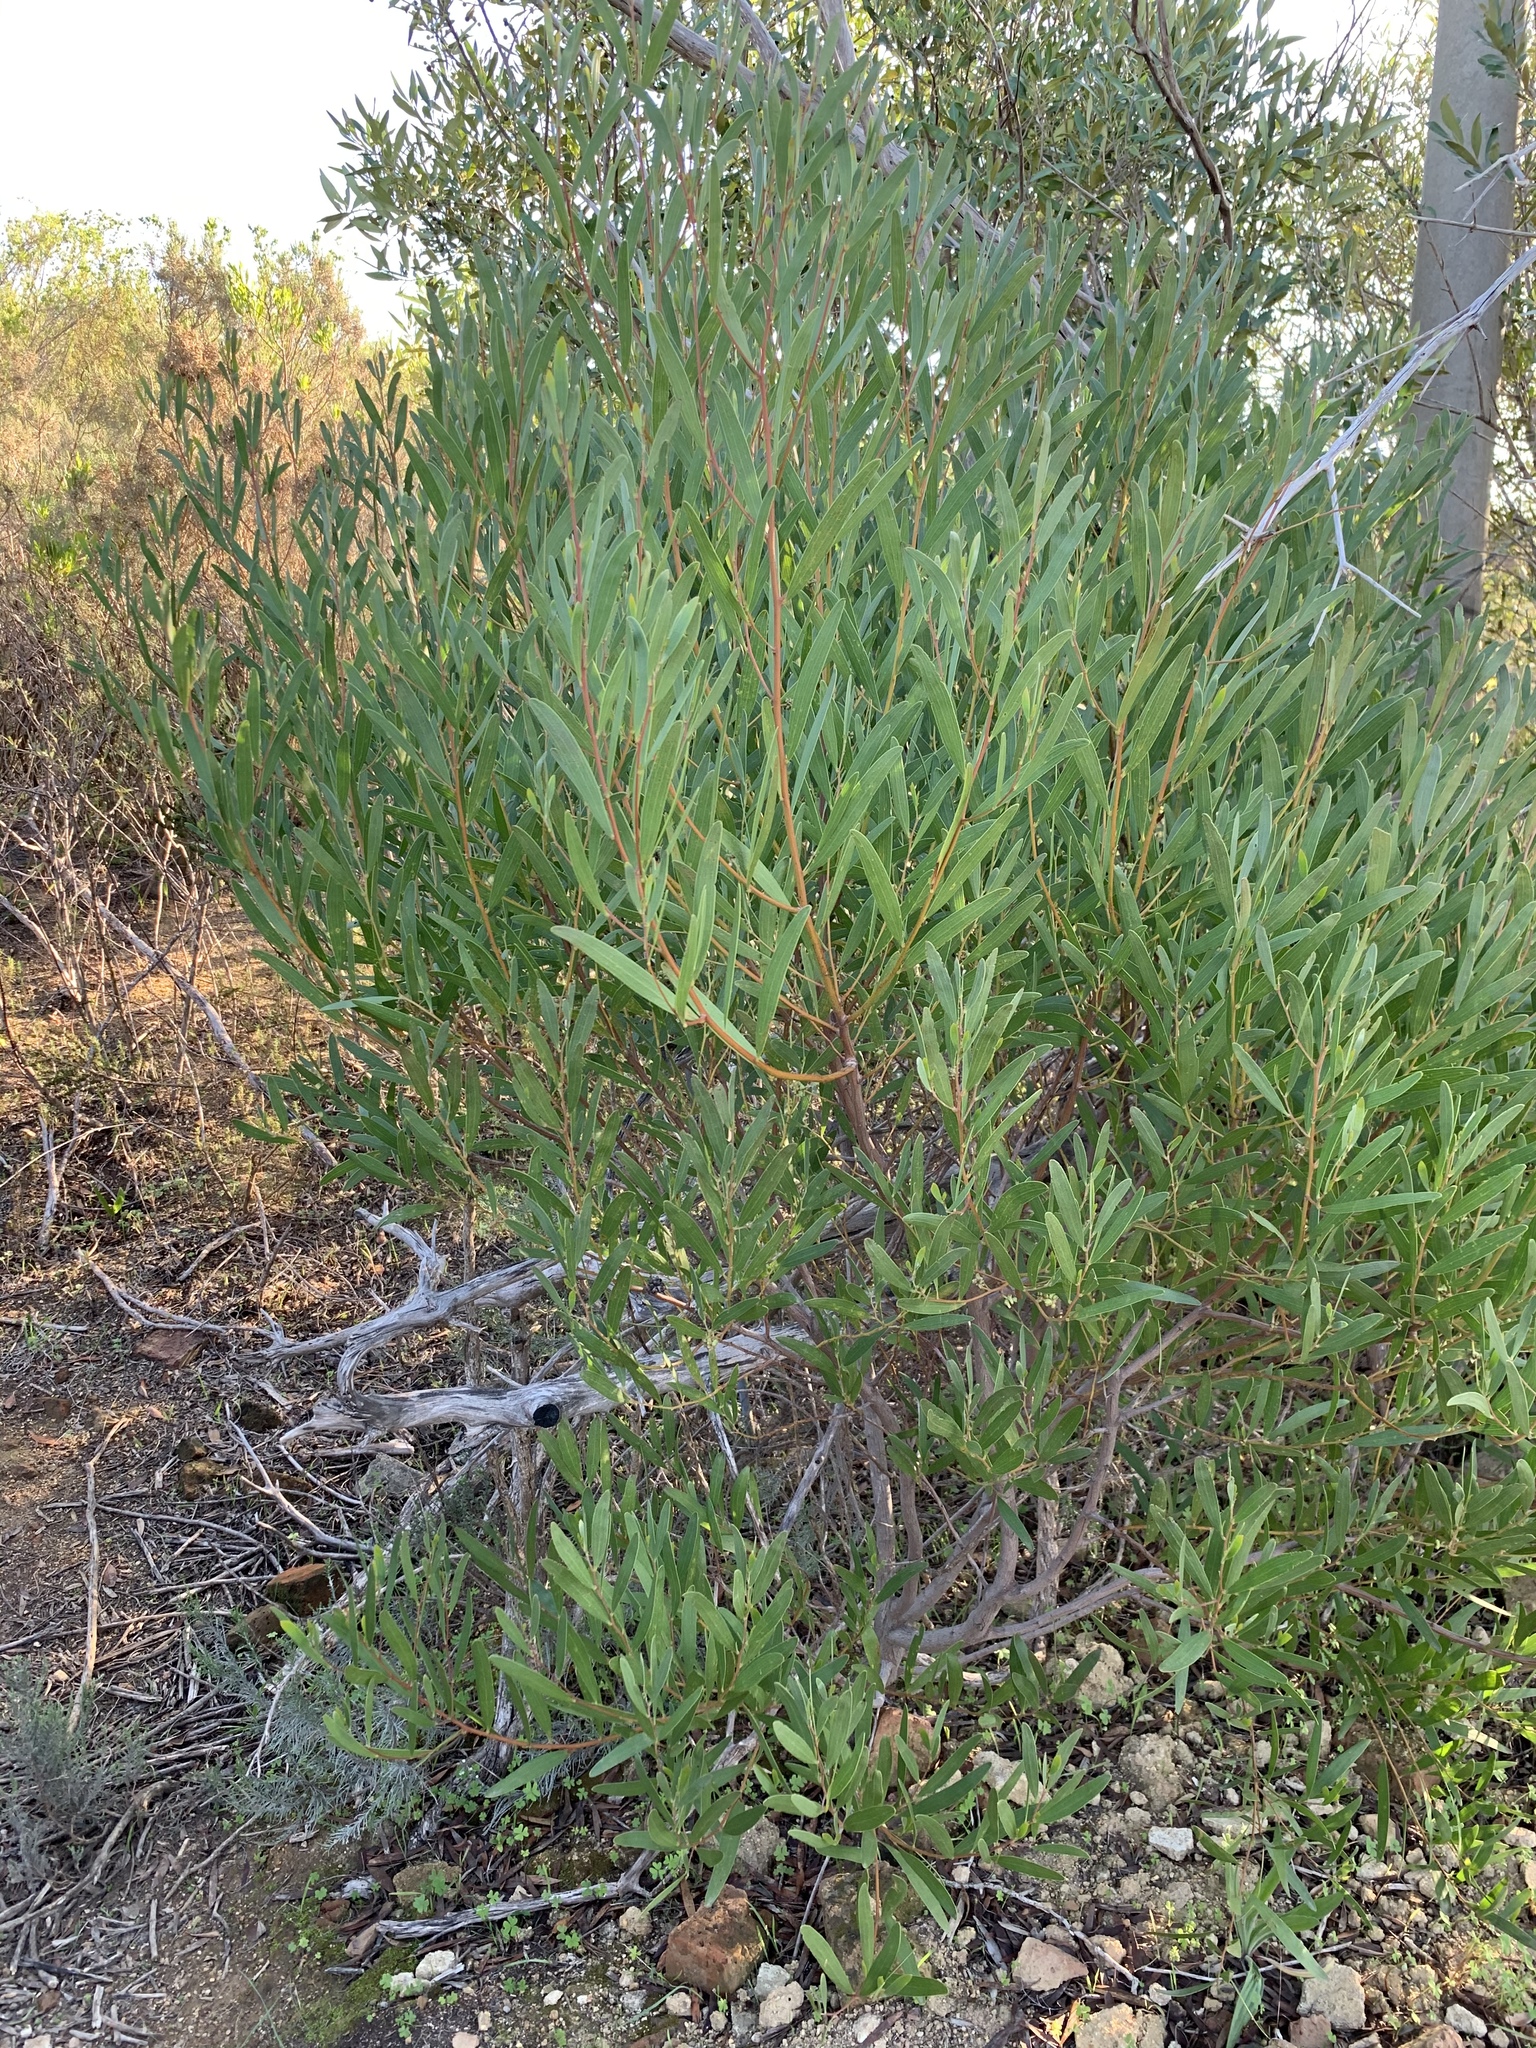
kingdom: Plantae
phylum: Tracheophyta
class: Magnoliopsida
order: Fabales
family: Fabaceae
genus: Acacia
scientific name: Acacia cyclops
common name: Coastal wattle
